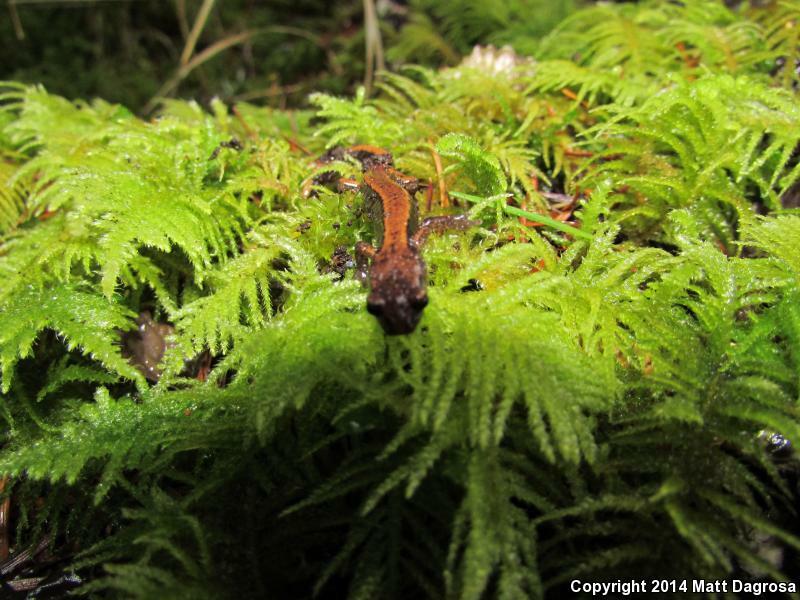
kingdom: Animalia
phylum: Chordata
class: Amphibia
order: Caudata
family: Plethodontidae
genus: Plethodon
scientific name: Plethodon vehiculum
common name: Western red-backed salamander
